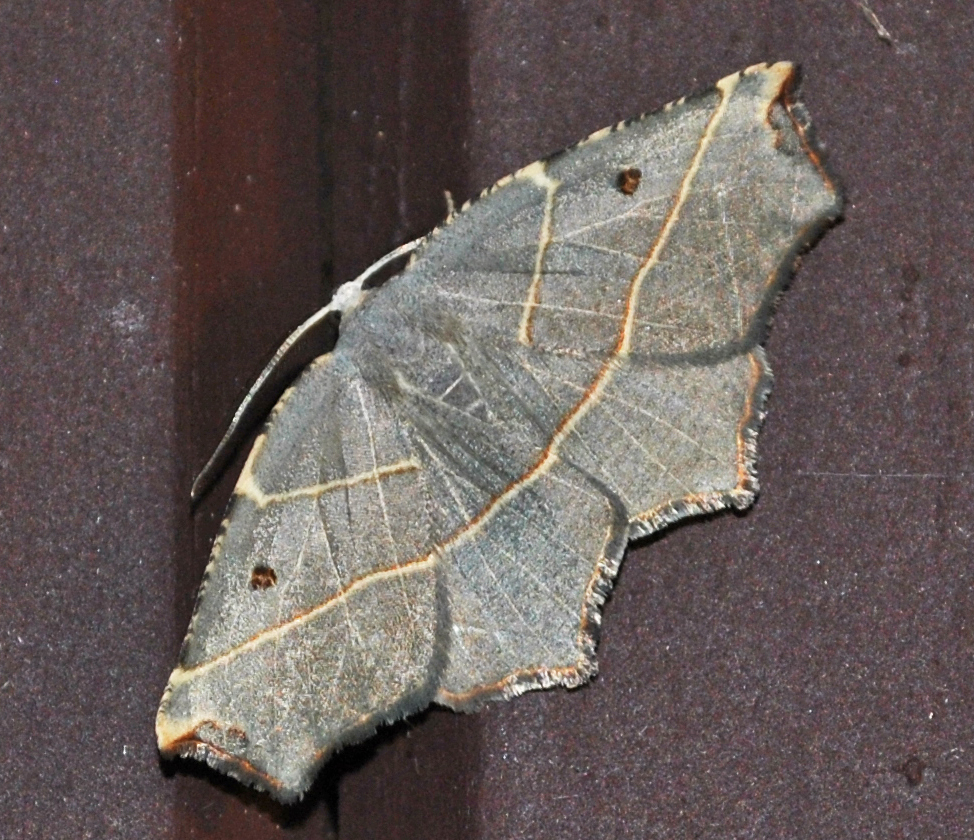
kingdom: Animalia
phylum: Arthropoda
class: Insecta
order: Lepidoptera
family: Geometridae
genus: Metanema
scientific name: Metanema inatomaria
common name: Pale metanema
